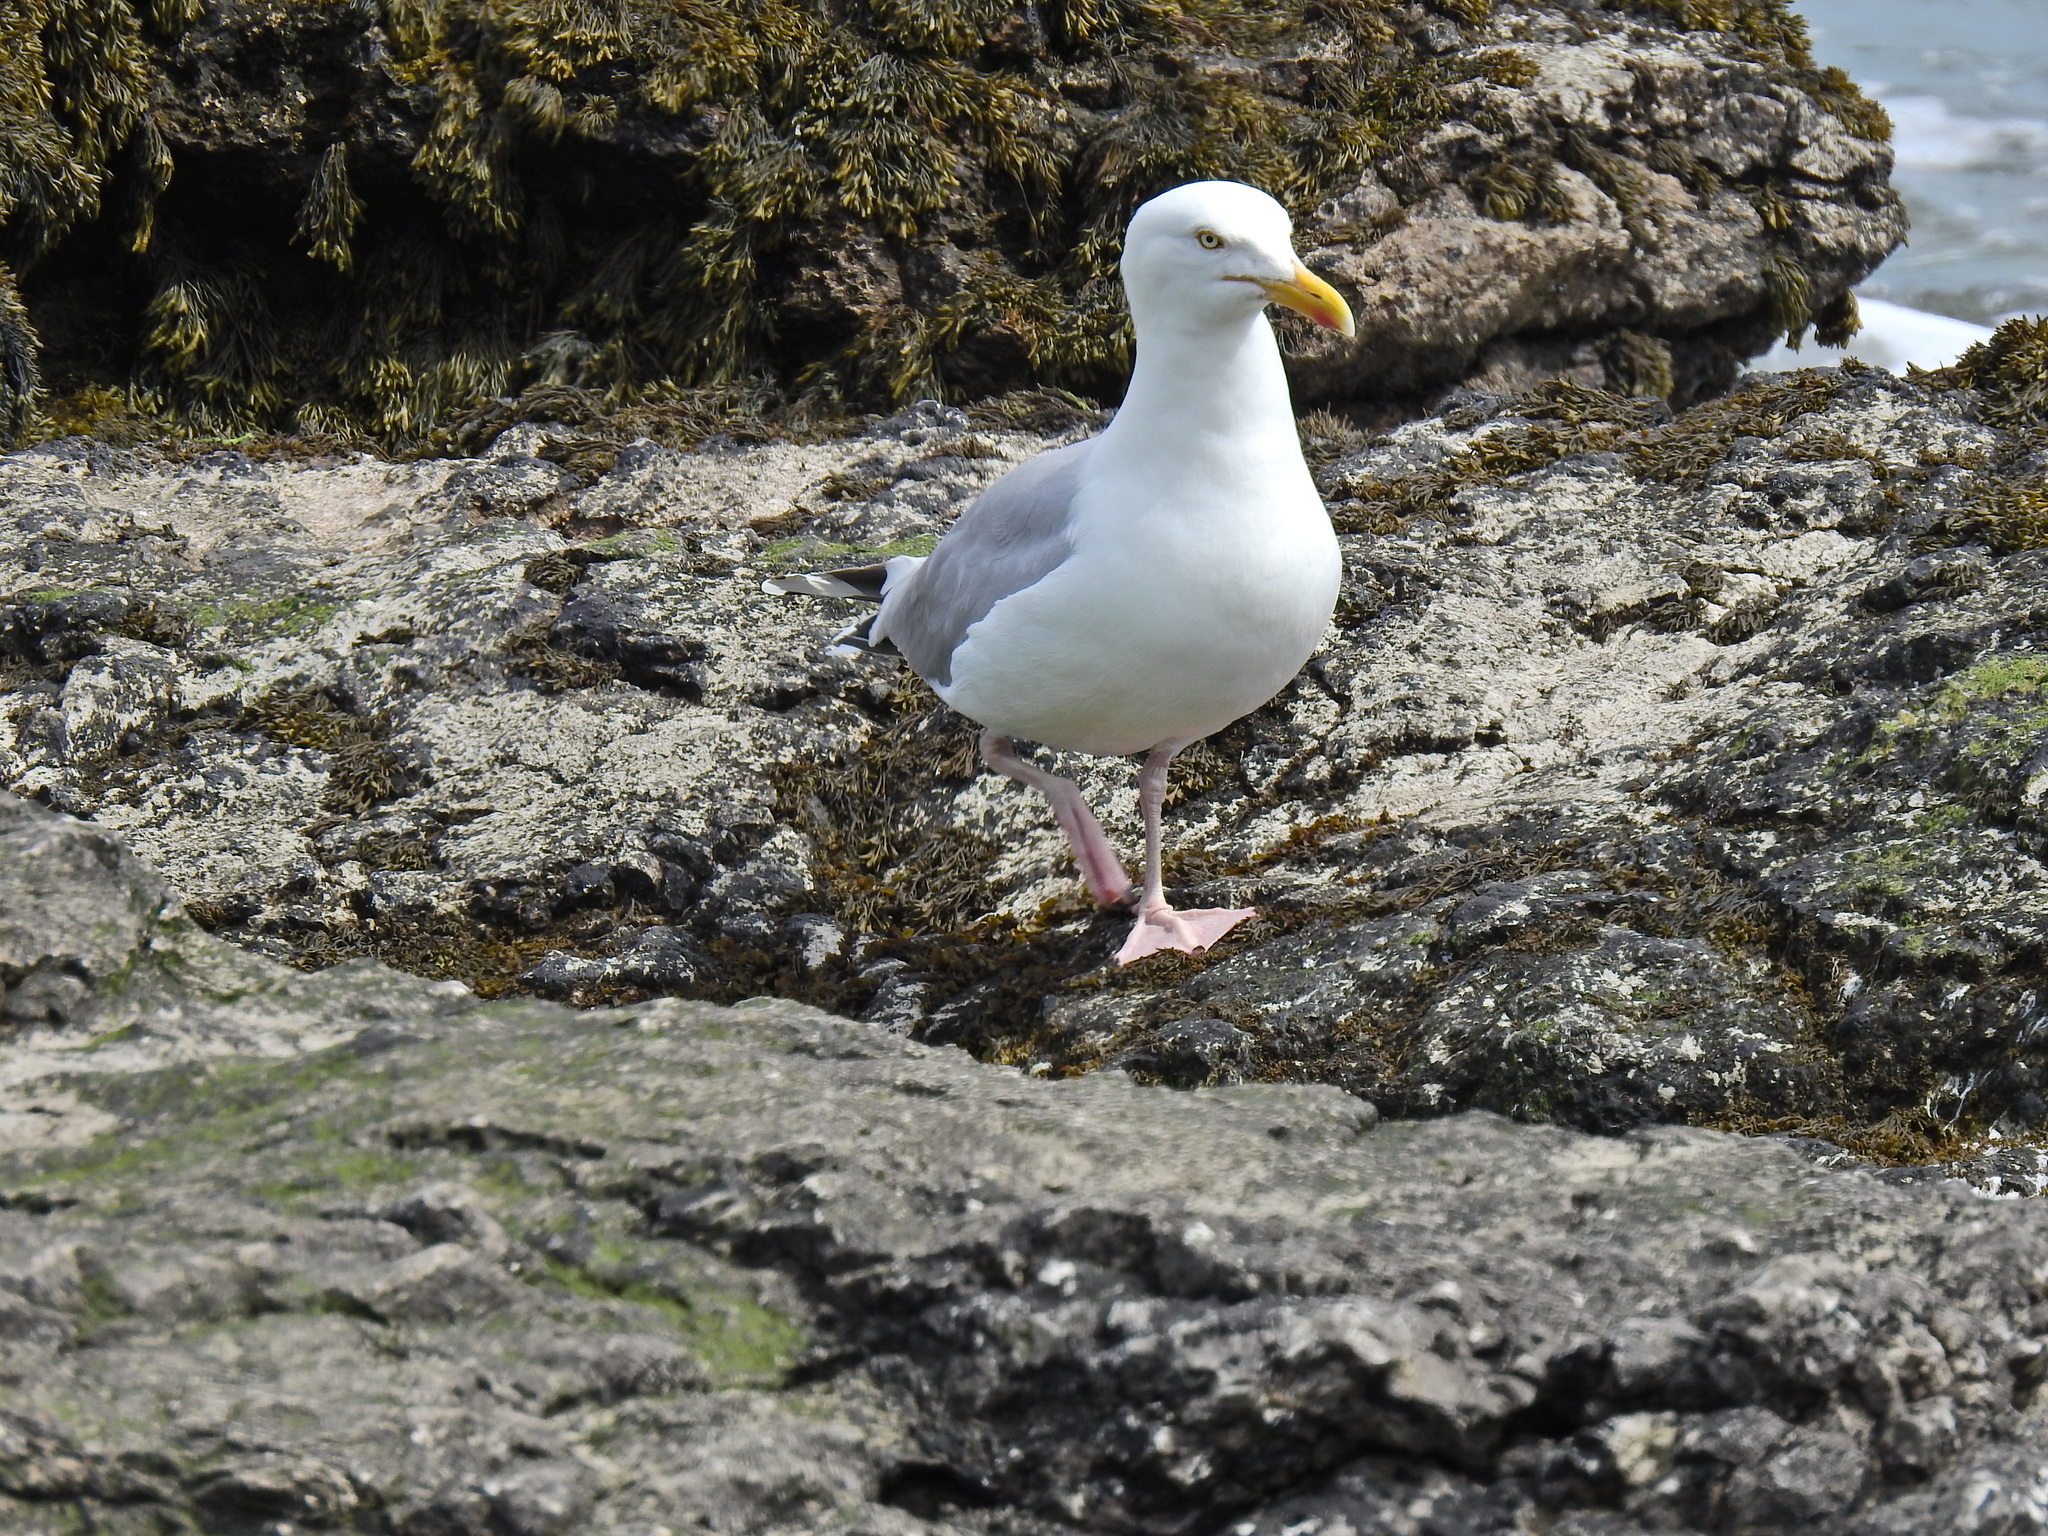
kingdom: Animalia
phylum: Chordata
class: Aves
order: Charadriiformes
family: Laridae
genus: Larus
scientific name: Larus argentatus
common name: Herring gull
